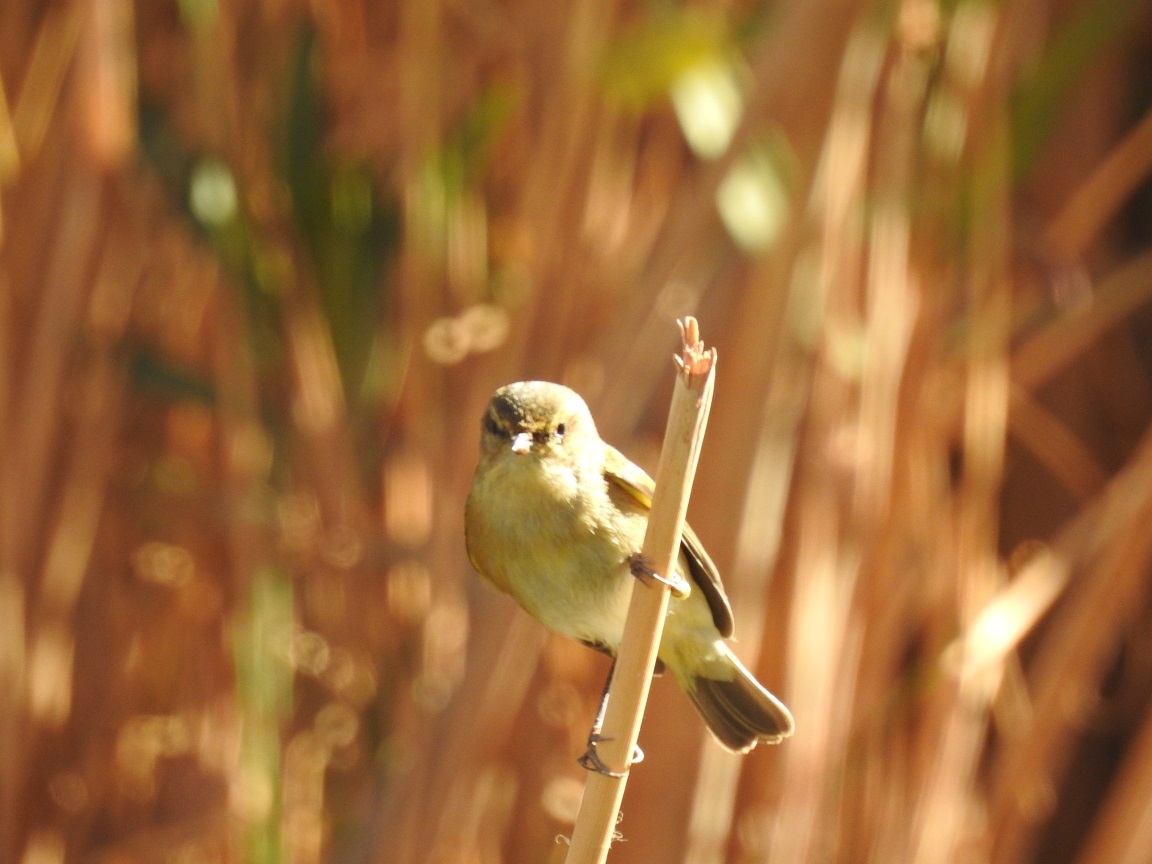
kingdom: Animalia
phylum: Chordata
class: Aves
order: Passeriformes
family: Phylloscopidae
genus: Phylloscopus
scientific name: Phylloscopus collybita
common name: Common chiffchaff
